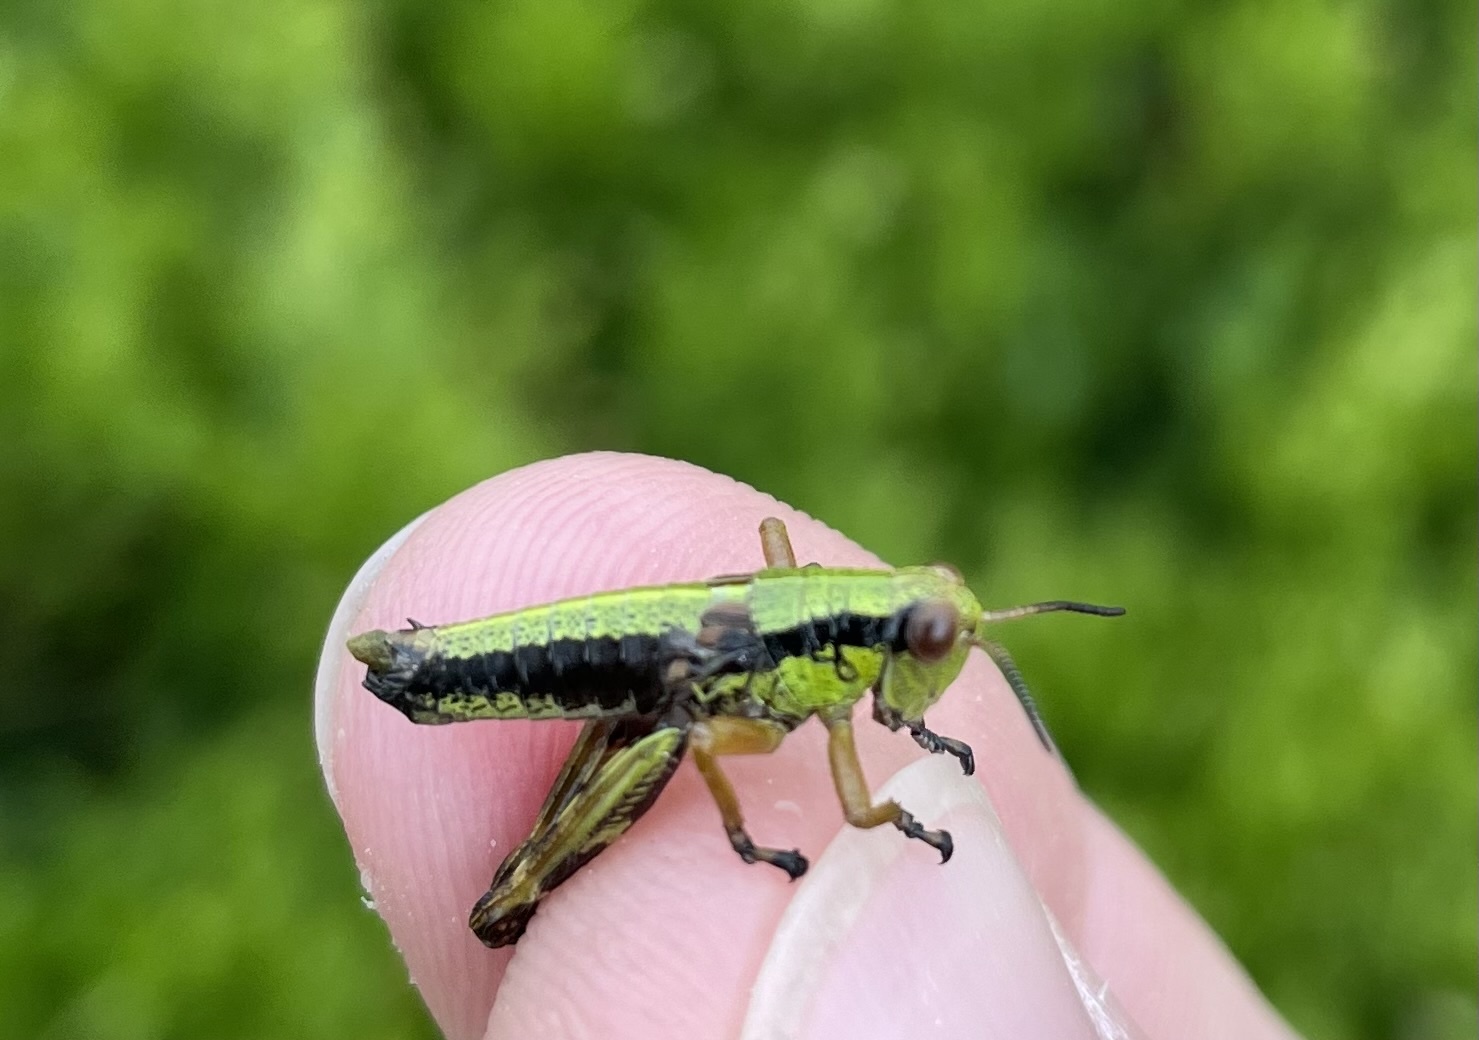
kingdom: Animalia
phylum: Arthropoda
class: Insecta
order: Orthoptera
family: Acrididae
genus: Miramella
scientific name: Miramella alpina
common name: Green mountain grasshopper
